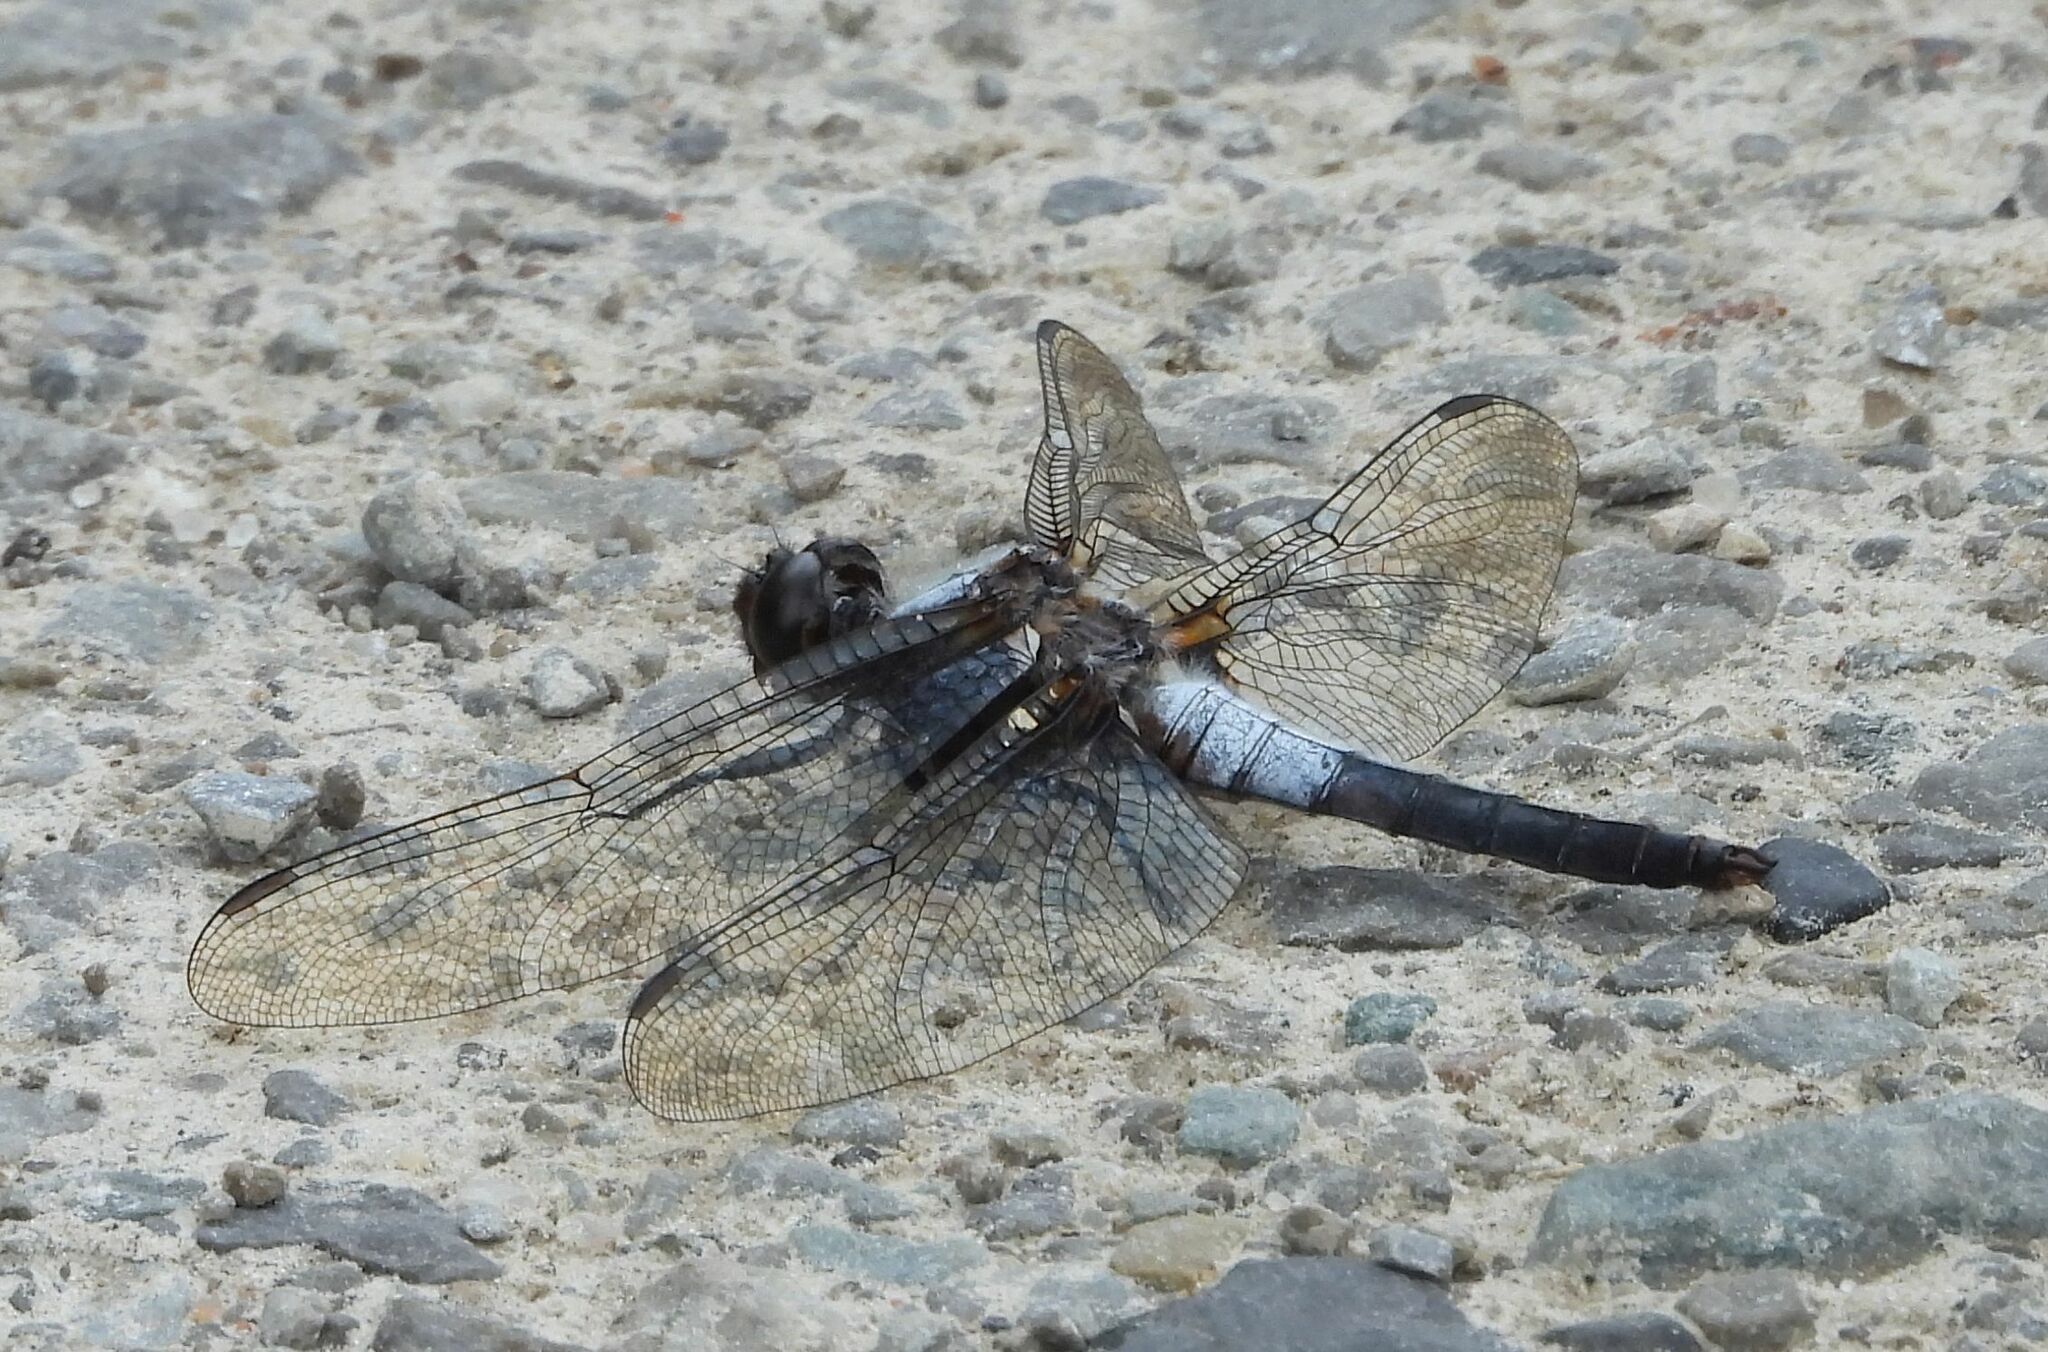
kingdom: Animalia
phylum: Arthropoda
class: Insecta
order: Odonata
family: Libellulidae
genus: Ladona
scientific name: Ladona julia
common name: Chalk-fronted corporal
